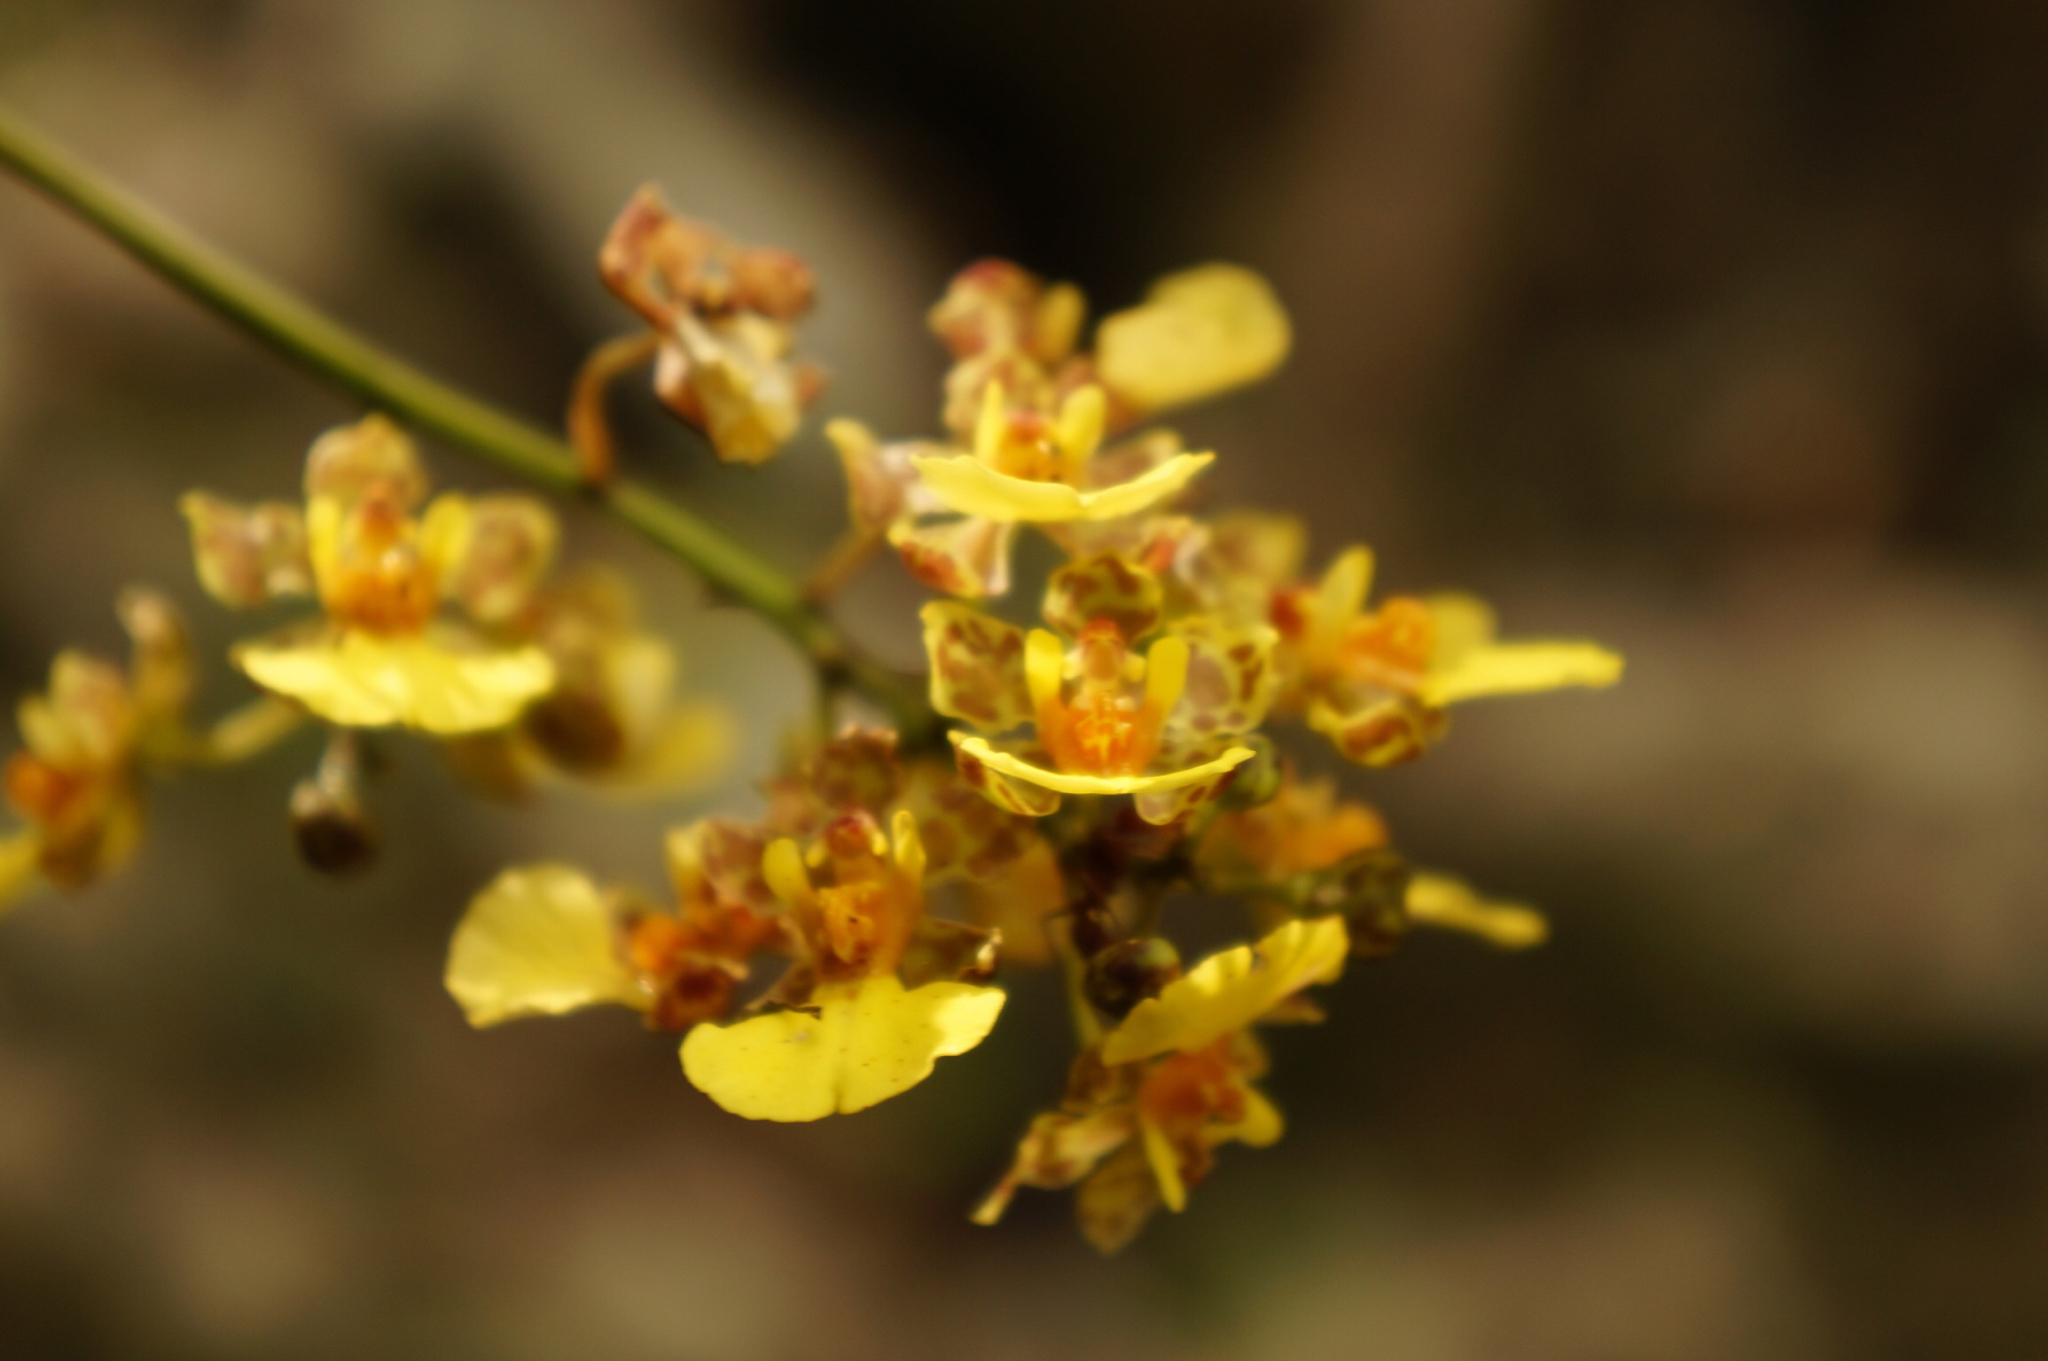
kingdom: Plantae
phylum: Tracheophyta
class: Liliopsida
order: Asparagales
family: Orchidaceae
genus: Trichocentrum
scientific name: Trichocentrum ascendens
